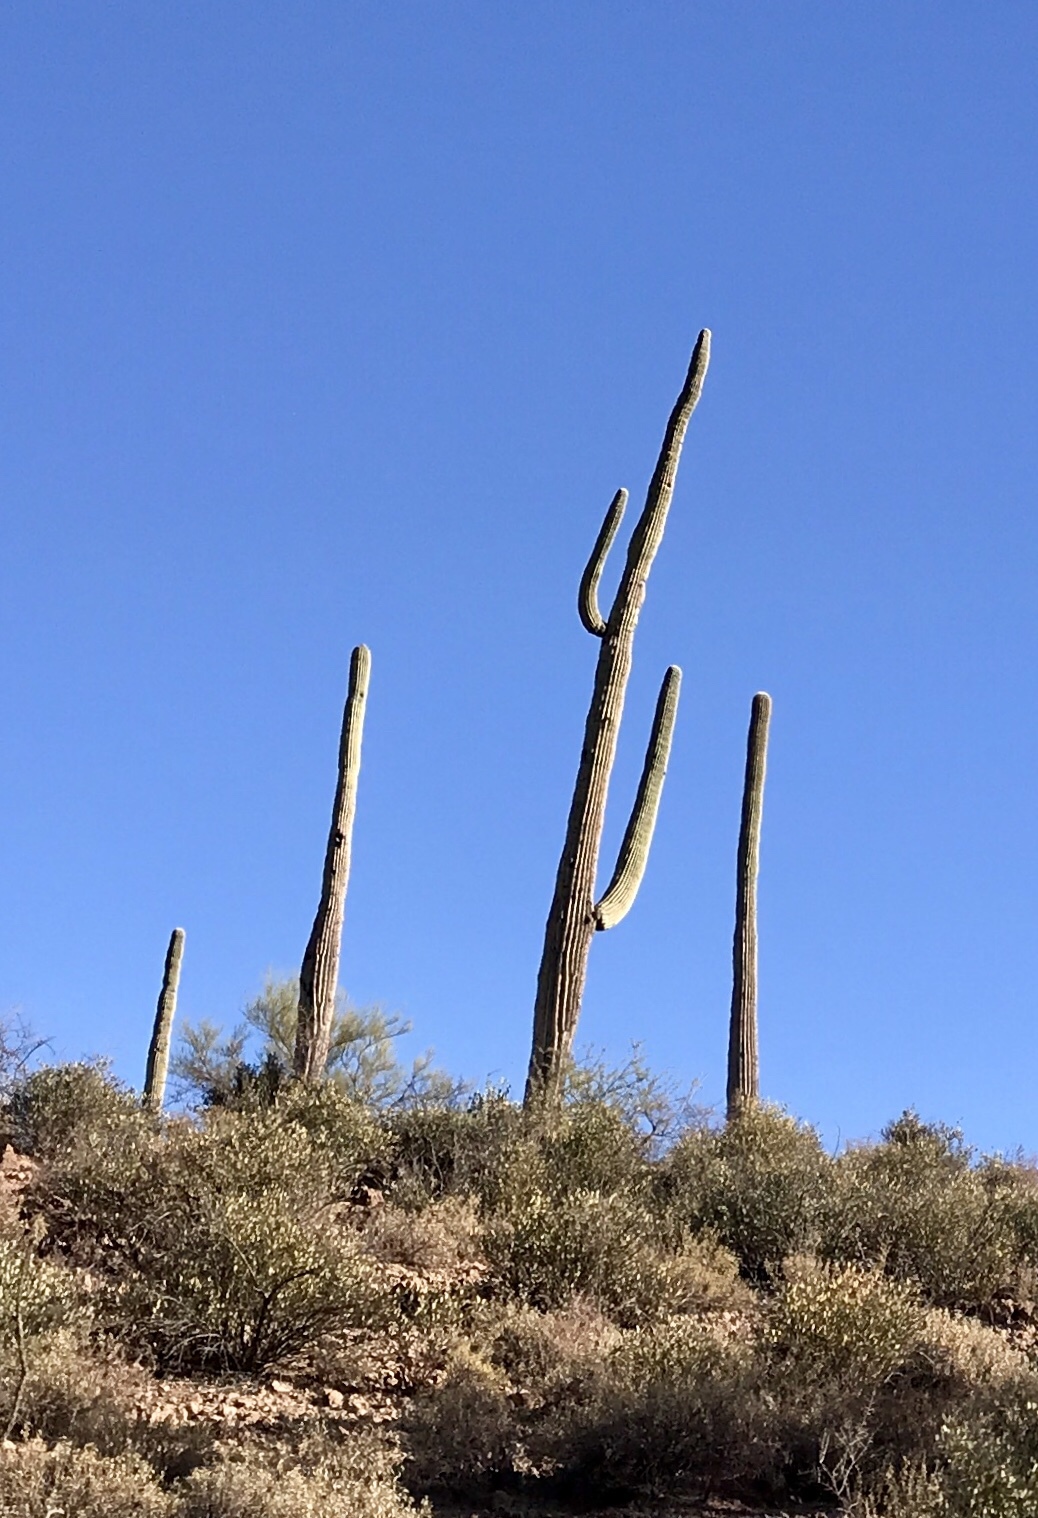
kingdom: Plantae
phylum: Tracheophyta
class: Magnoliopsida
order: Caryophyllales
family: Cactaceae
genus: Carnegiea
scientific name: Carnegiea gigantea
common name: Saguaro
